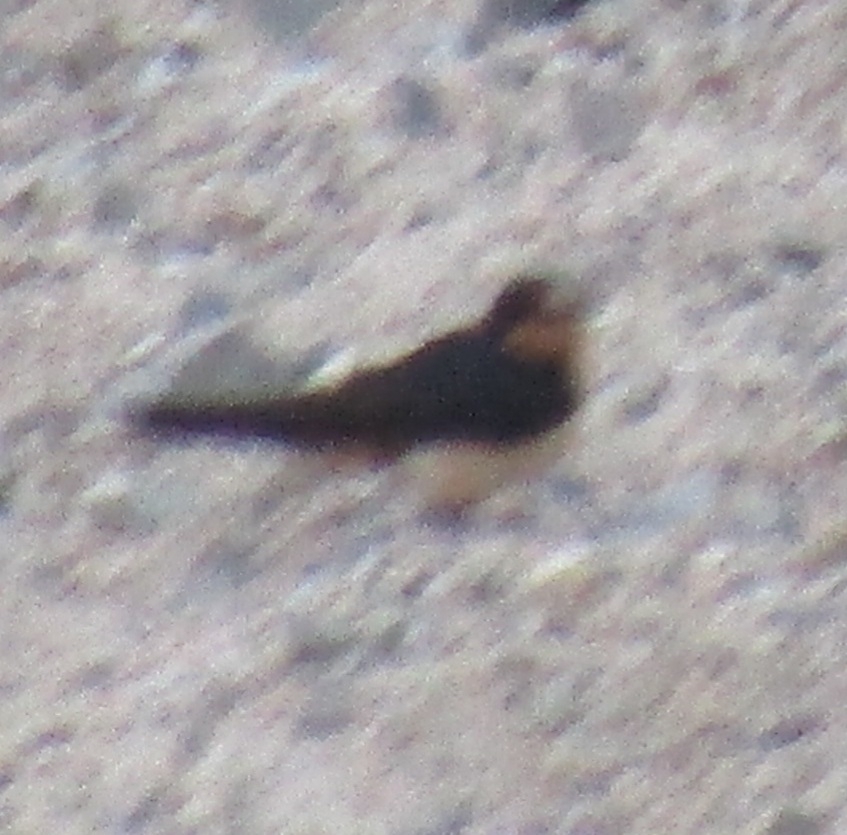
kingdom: Animalia
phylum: Chordata
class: Aves
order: Passeriformes
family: Hirundinidae
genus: Hirundo
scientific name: Hirundo rustica
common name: Barn swallow
